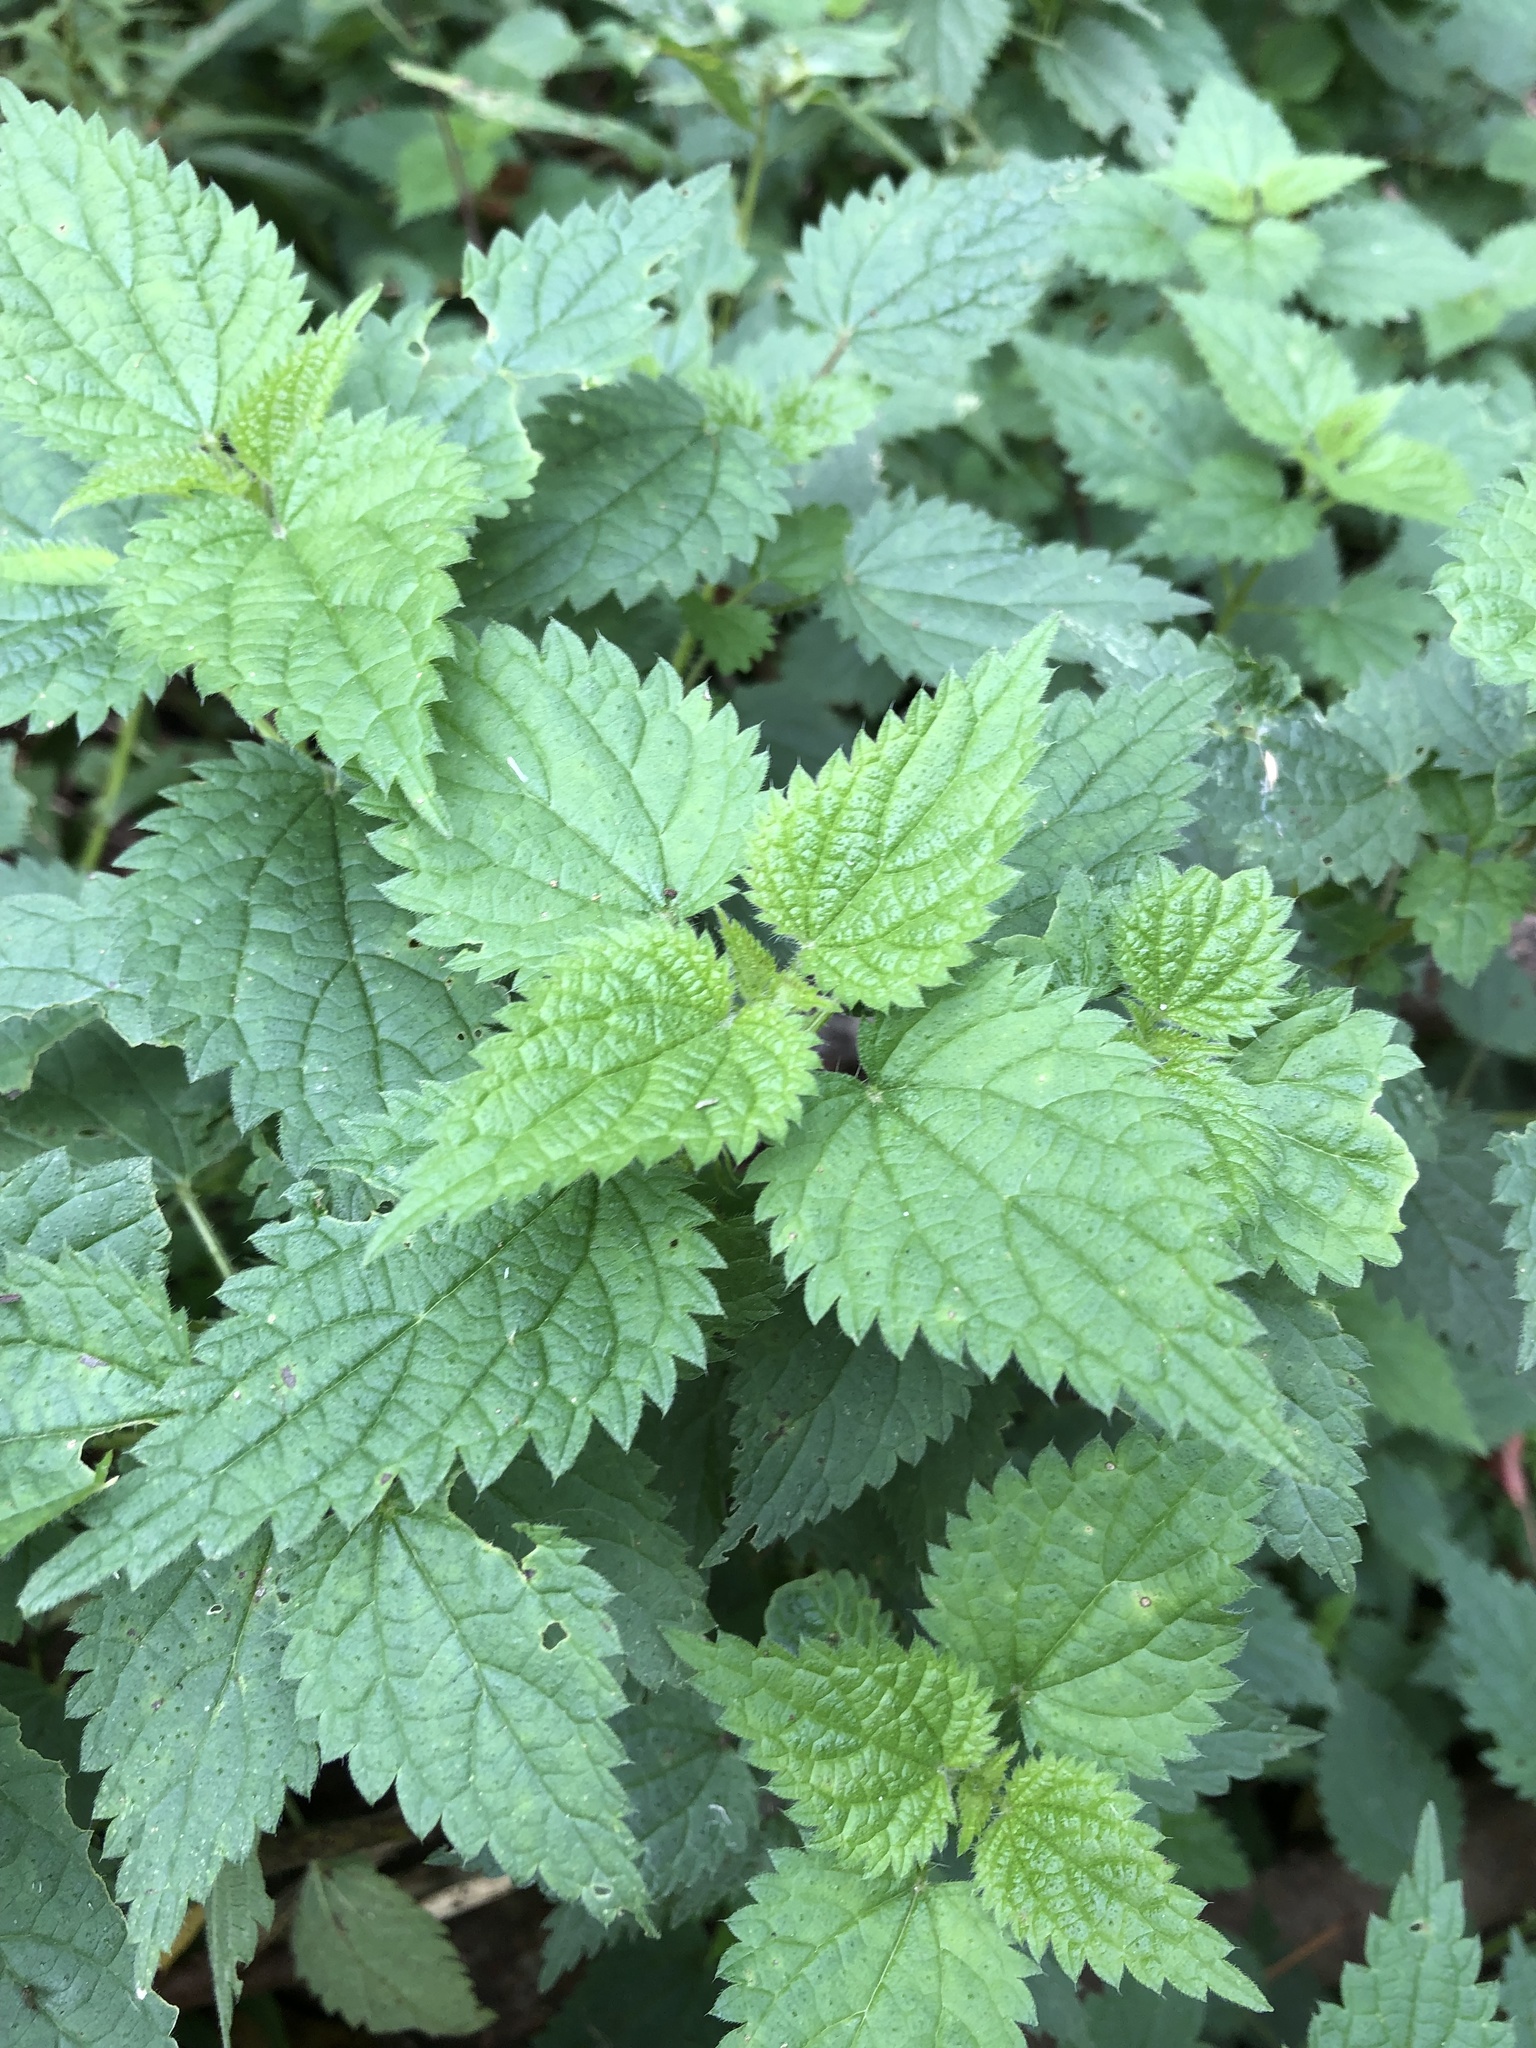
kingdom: Plantae
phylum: Tracheophyta
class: Magnoliopsida
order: Rosales
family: Urticaceae
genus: Urtica
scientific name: Urtica dioica
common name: Common nettle
